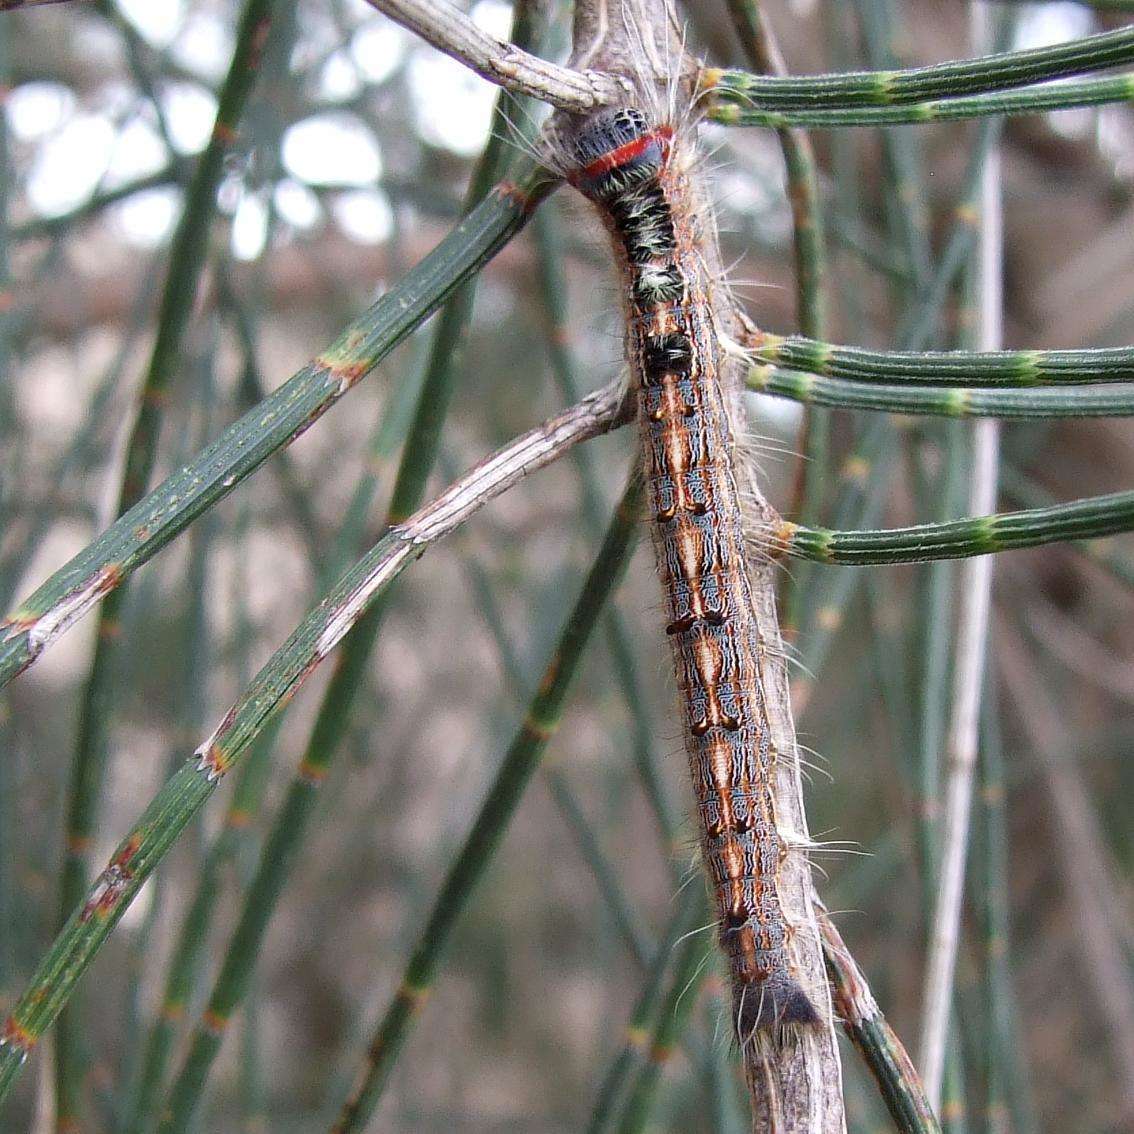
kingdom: Animalia
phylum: Arthropoda
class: Insecta
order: Lepidoptera
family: Lasiocampidae
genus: Pernattia
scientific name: Pernattia pusilla
